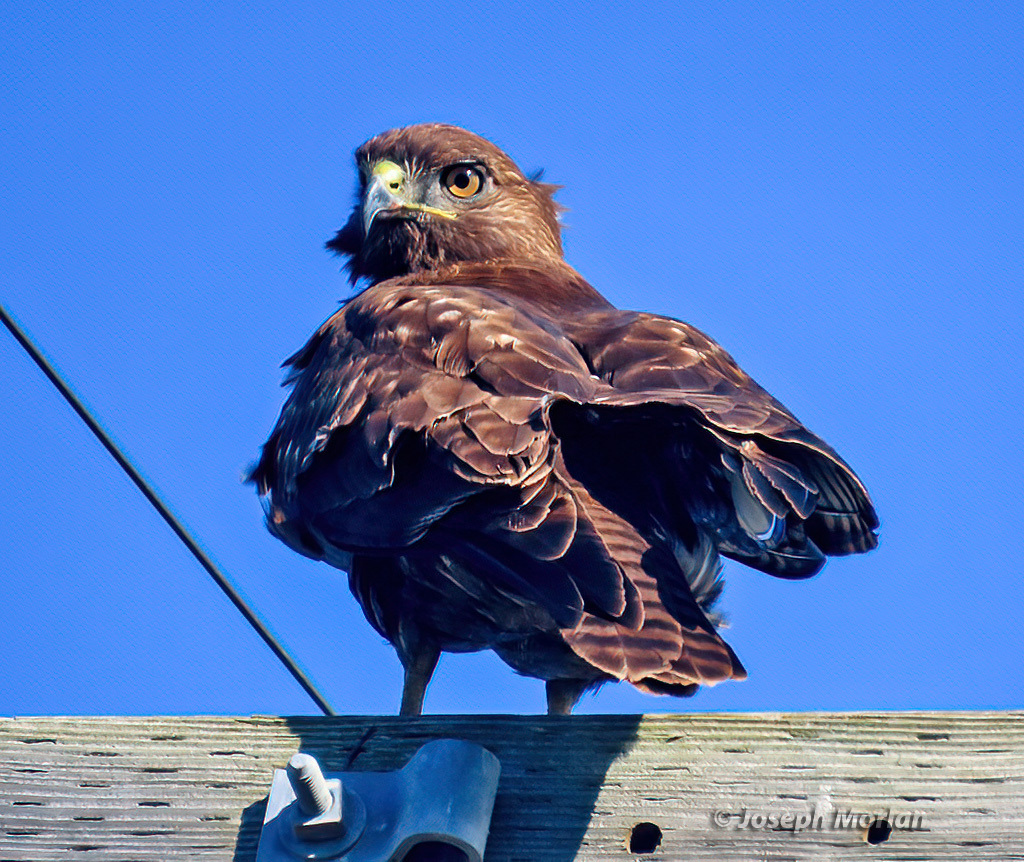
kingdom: Animalia
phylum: Chordata
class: Aves
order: Accipitriformes
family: Accipitridae
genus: Buteo
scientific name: Buteo jamaicensis
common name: Red-tailed hawk
